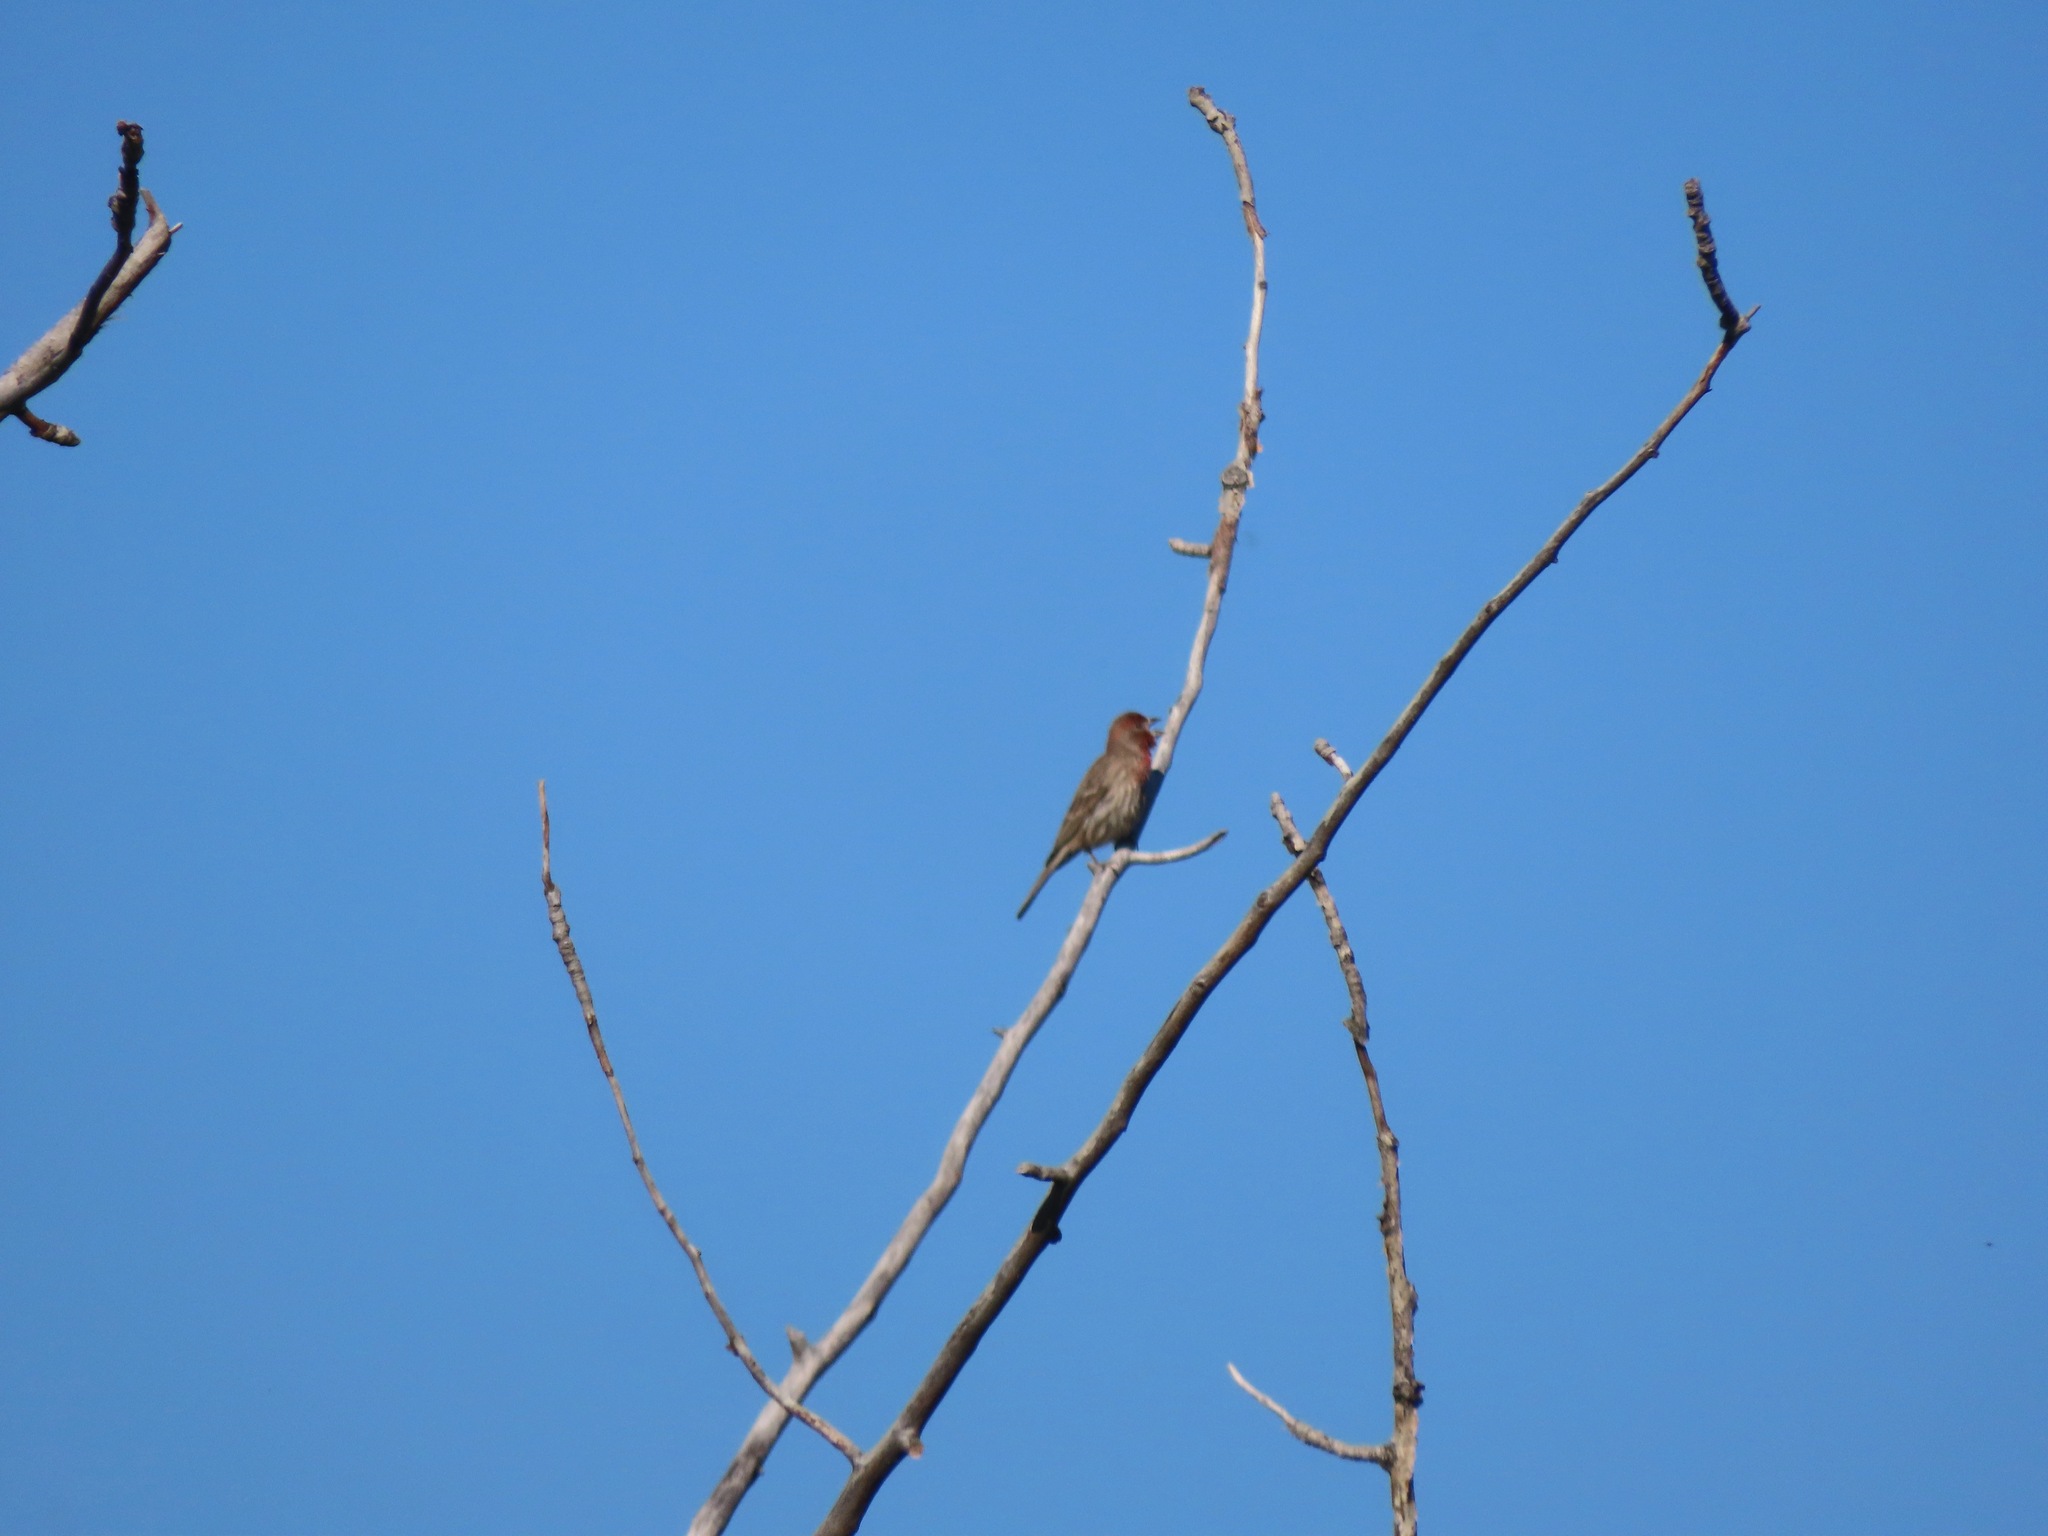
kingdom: Animalia
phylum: Chordata
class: Aves
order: Passeriformes
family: Fringillidae
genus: Haemorhous
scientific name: Haemorhous mexicanus
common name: House finch
